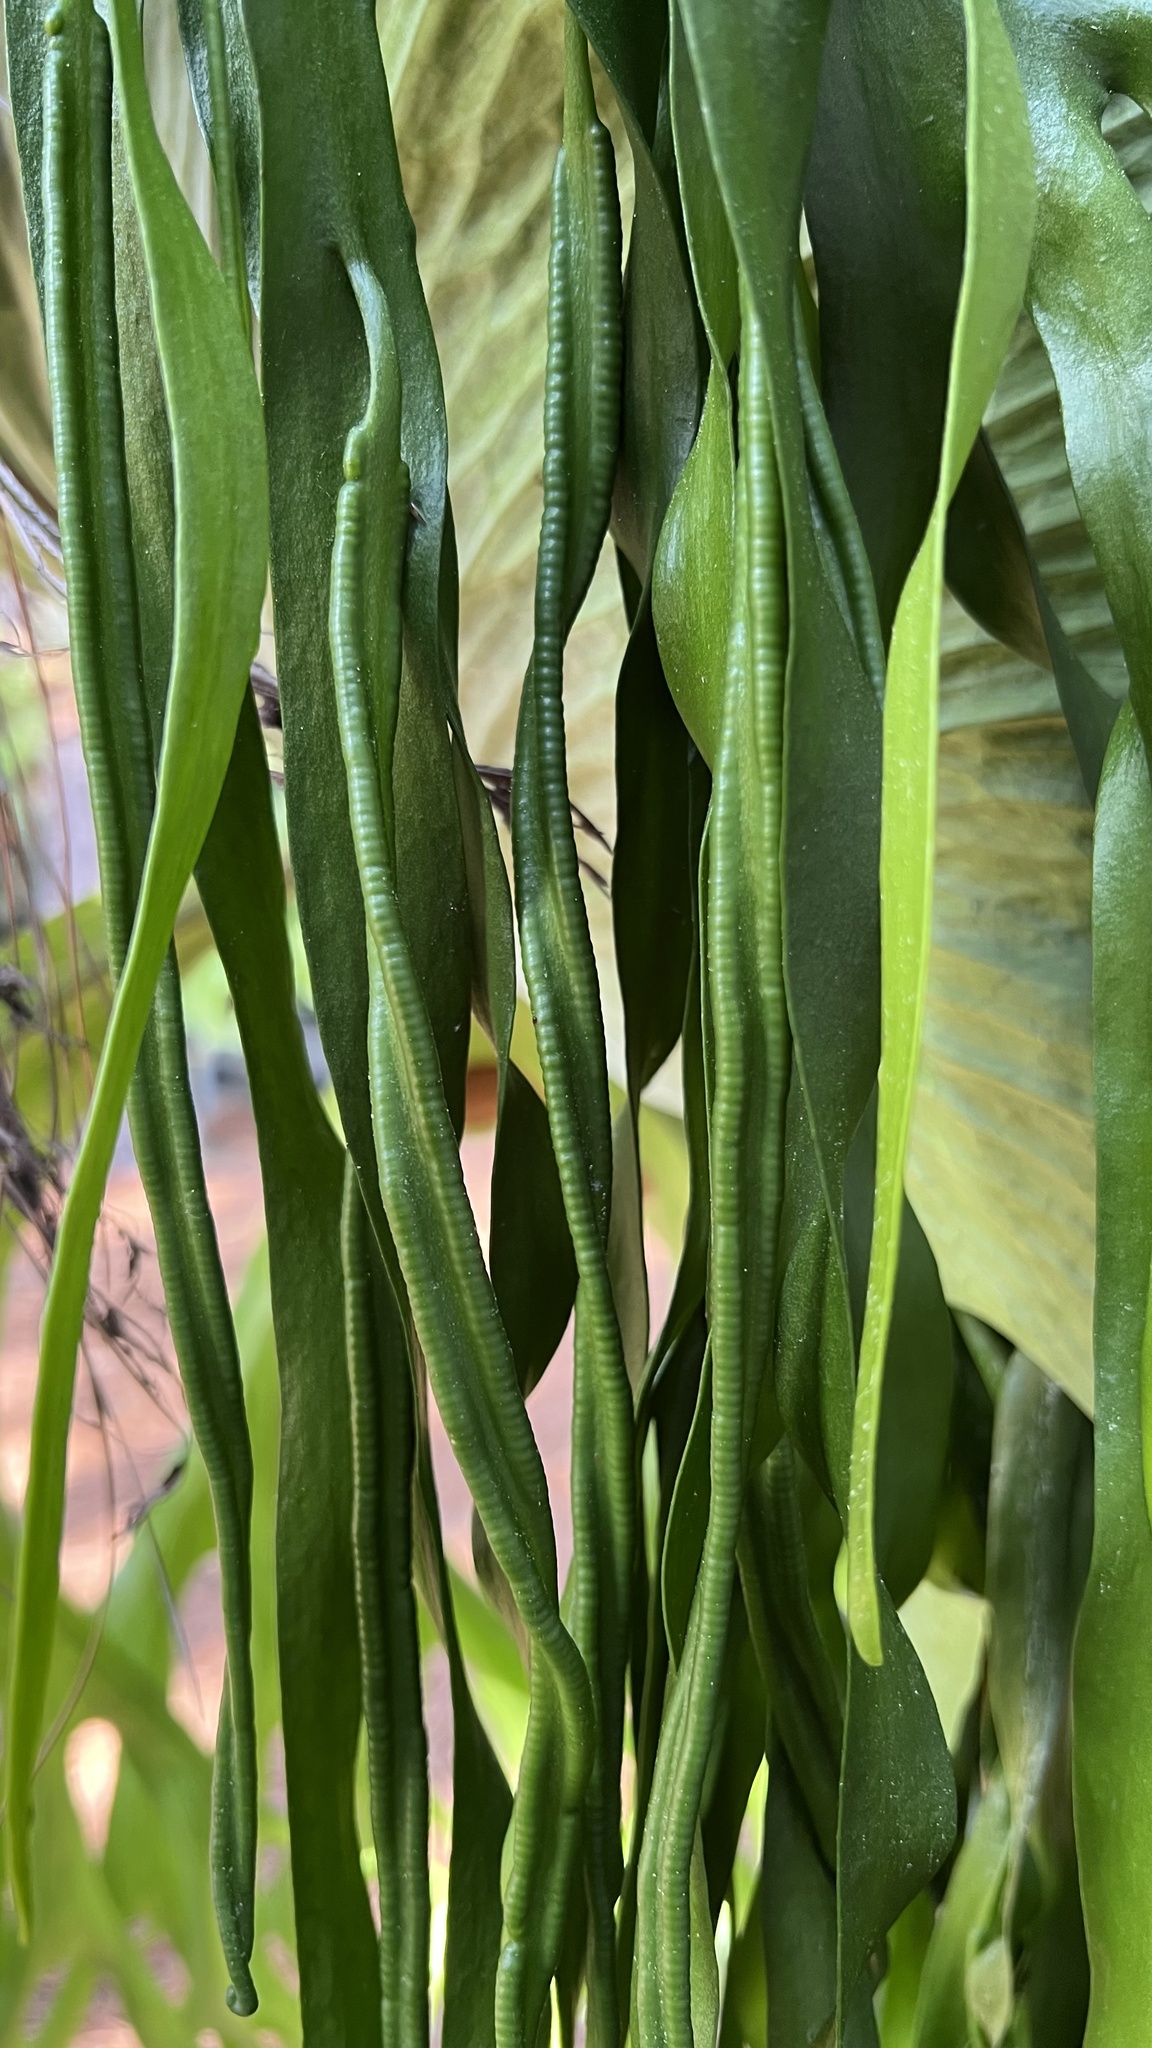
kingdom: Plantae
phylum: Tracheophyta
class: Polypodiopsida
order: Ophioglossales
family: Ophioglossaceae
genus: Ophioderma
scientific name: Ophioderma pendulum
